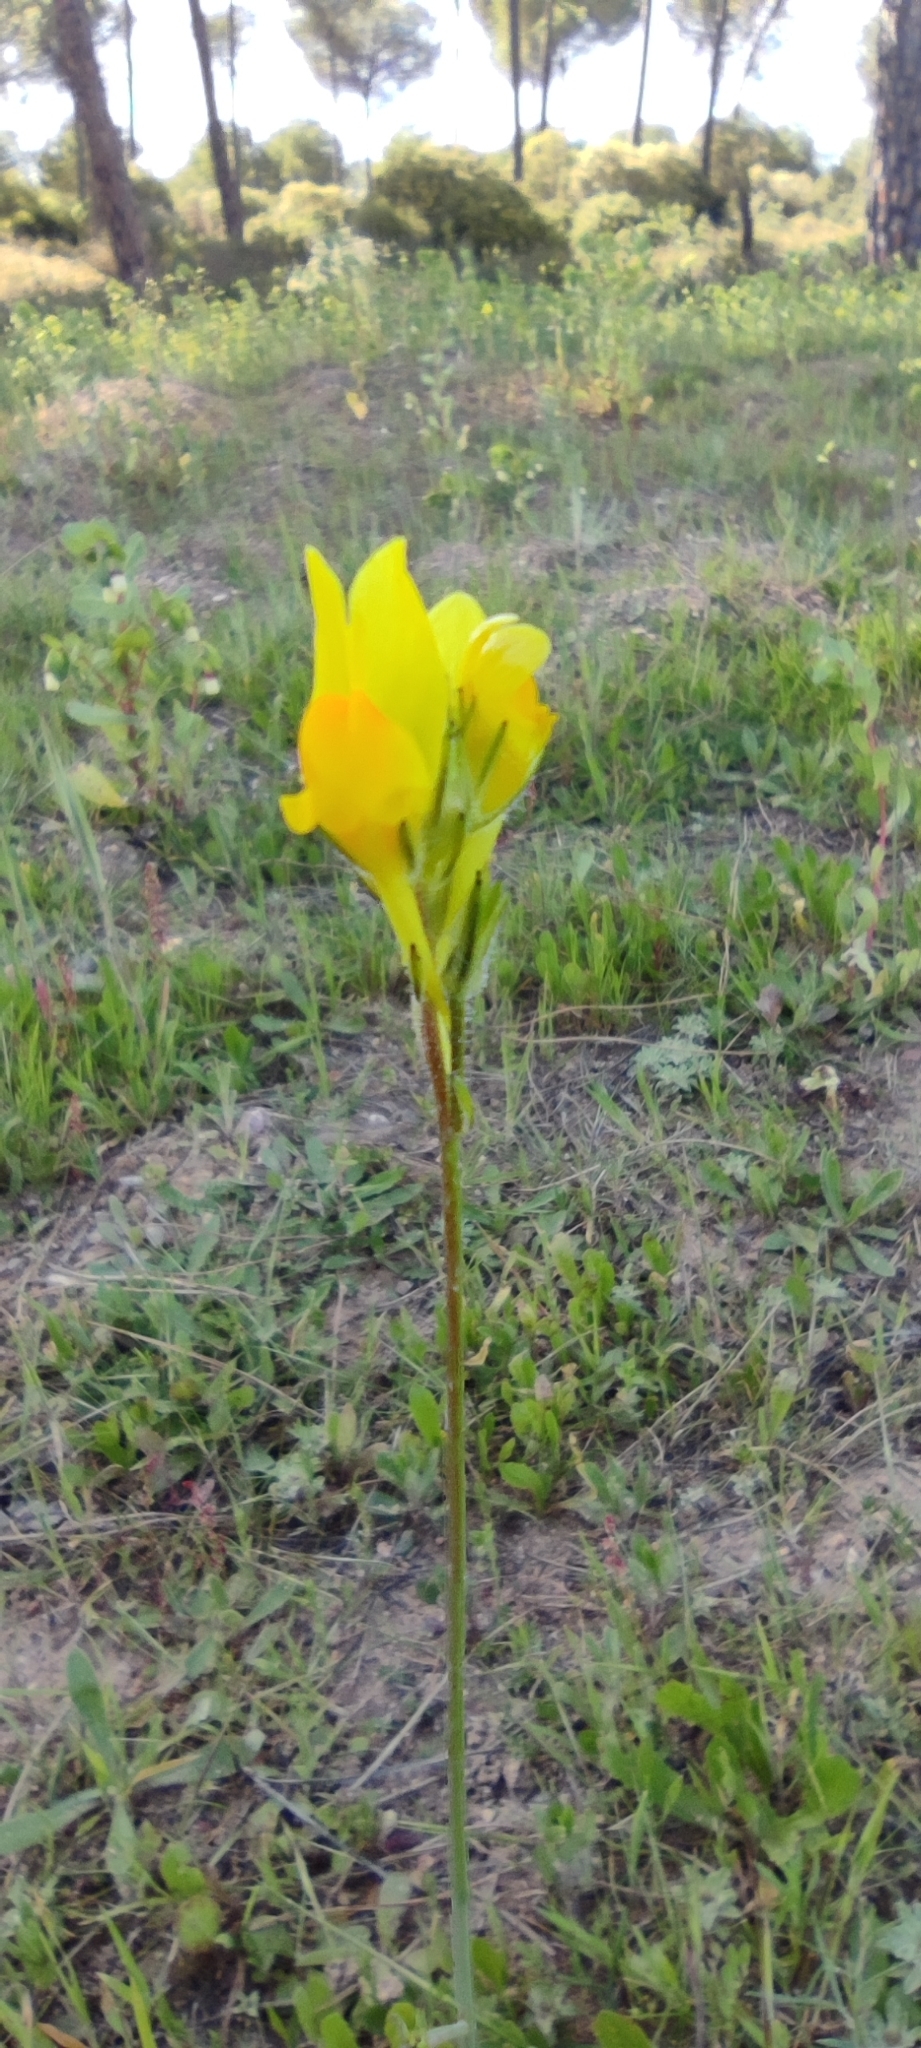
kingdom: Plantae
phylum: Tracheophyta
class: Magnoliopsida
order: Lamiales
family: Plantaginaceae
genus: Linaria
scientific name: Linaria viscosa
